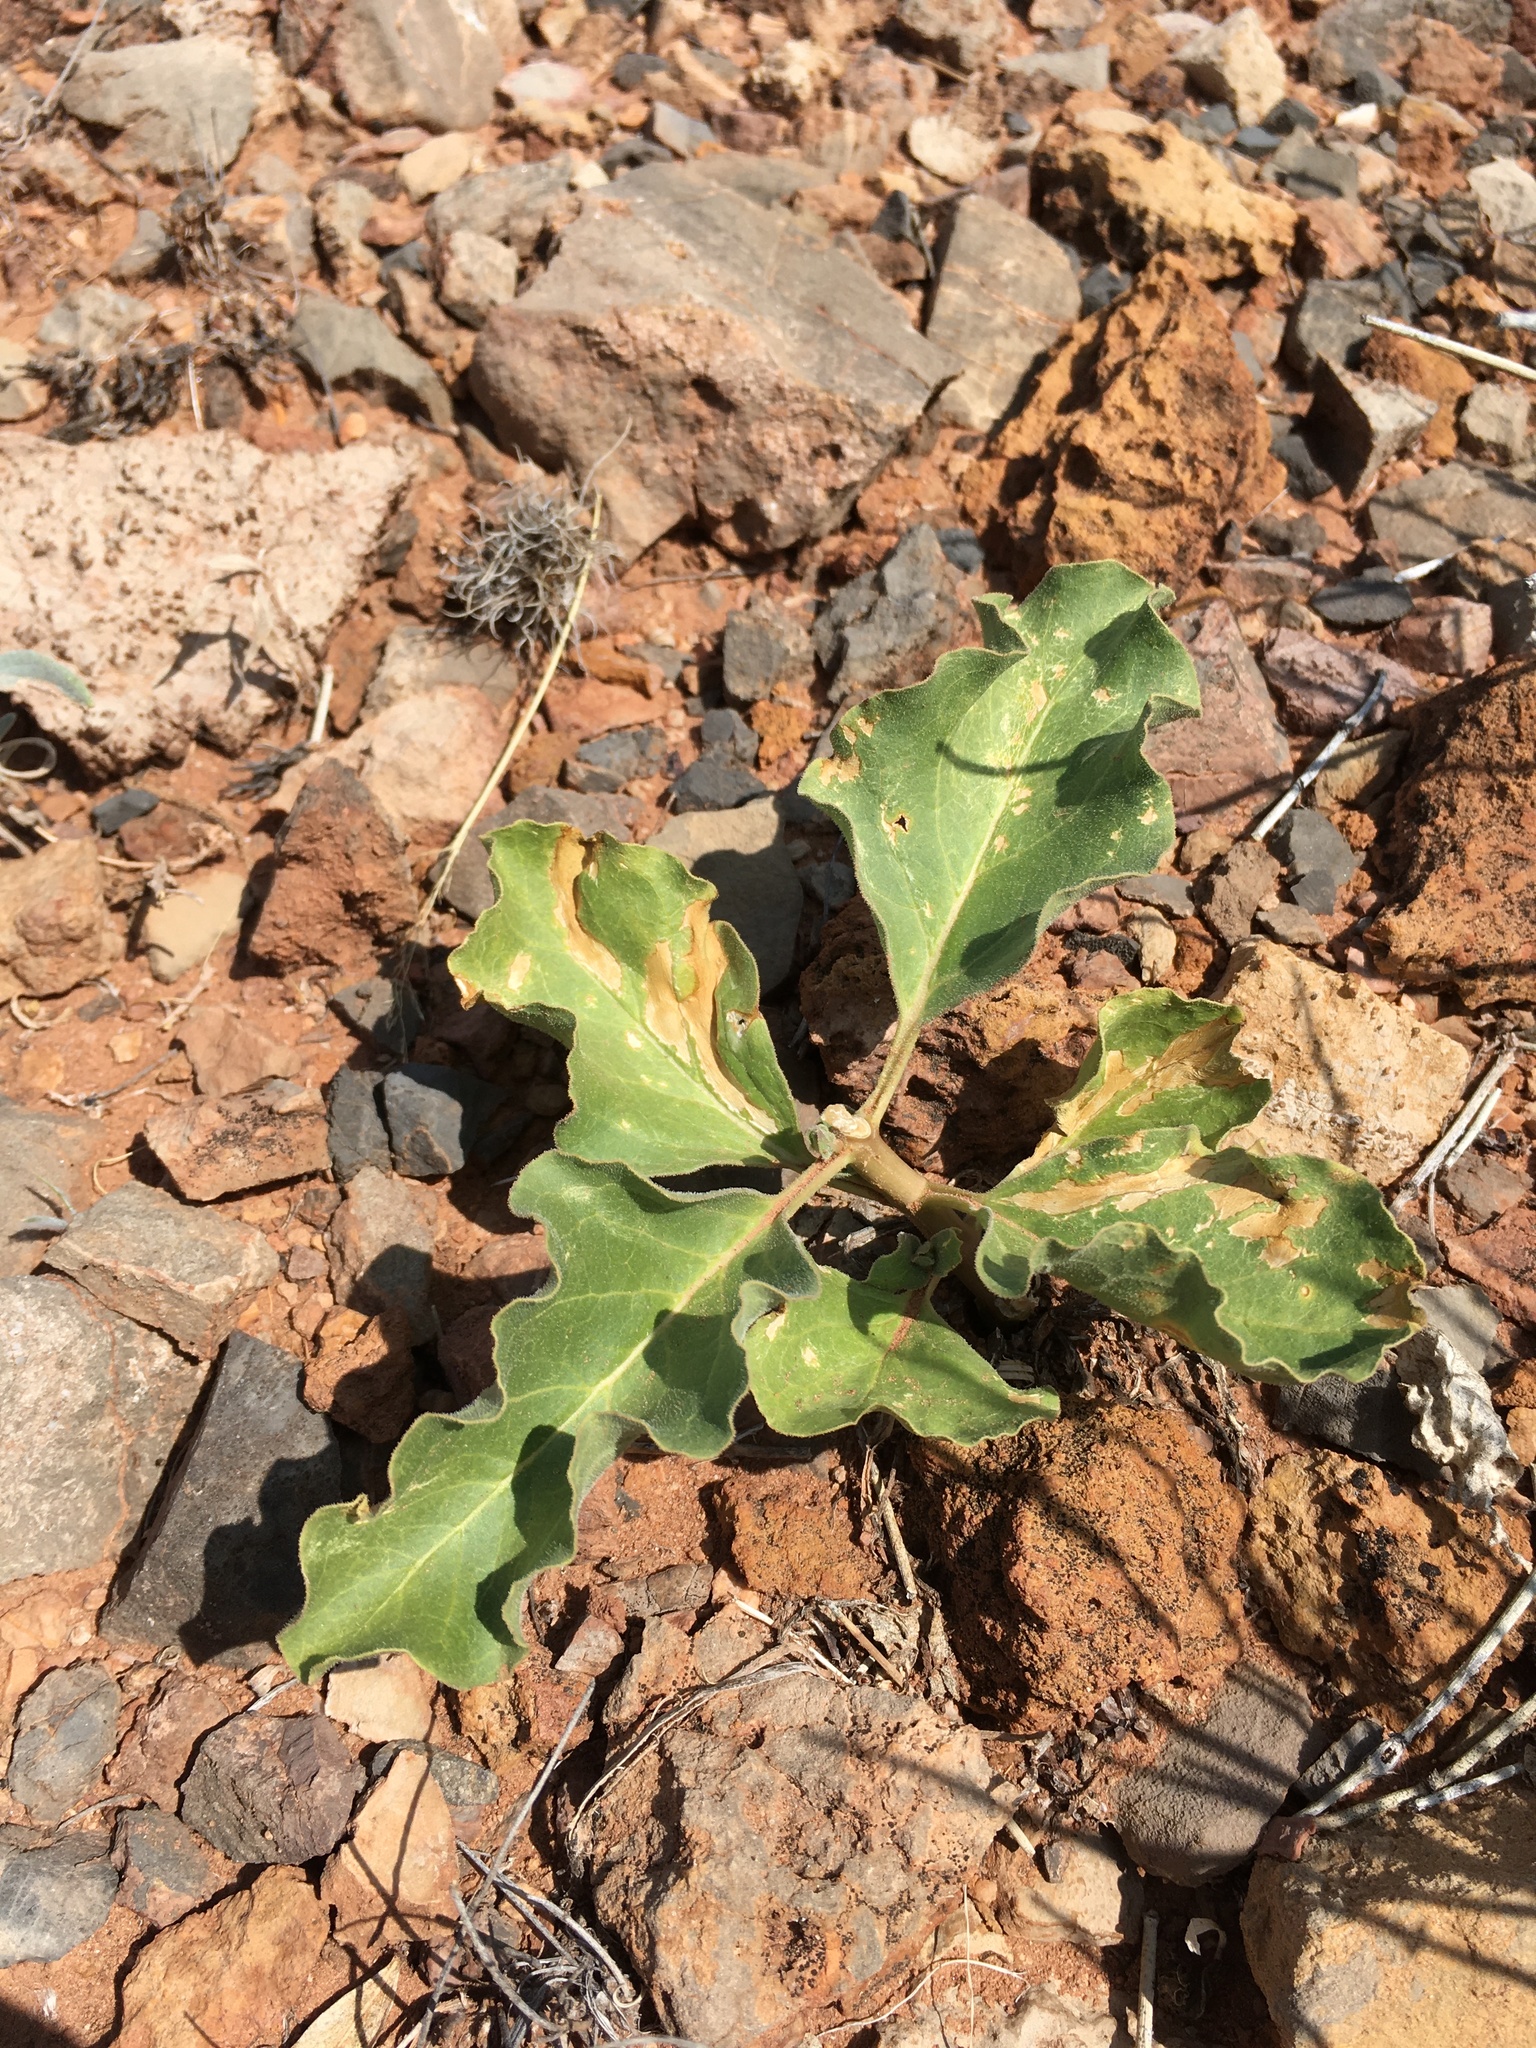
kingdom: Plantae
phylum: Tracheophyta
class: Magnoliopsida
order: Gentianales
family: Apocynaceae
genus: Asclepias
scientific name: Asclepias oenotheroides
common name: Zizotes milkweed
